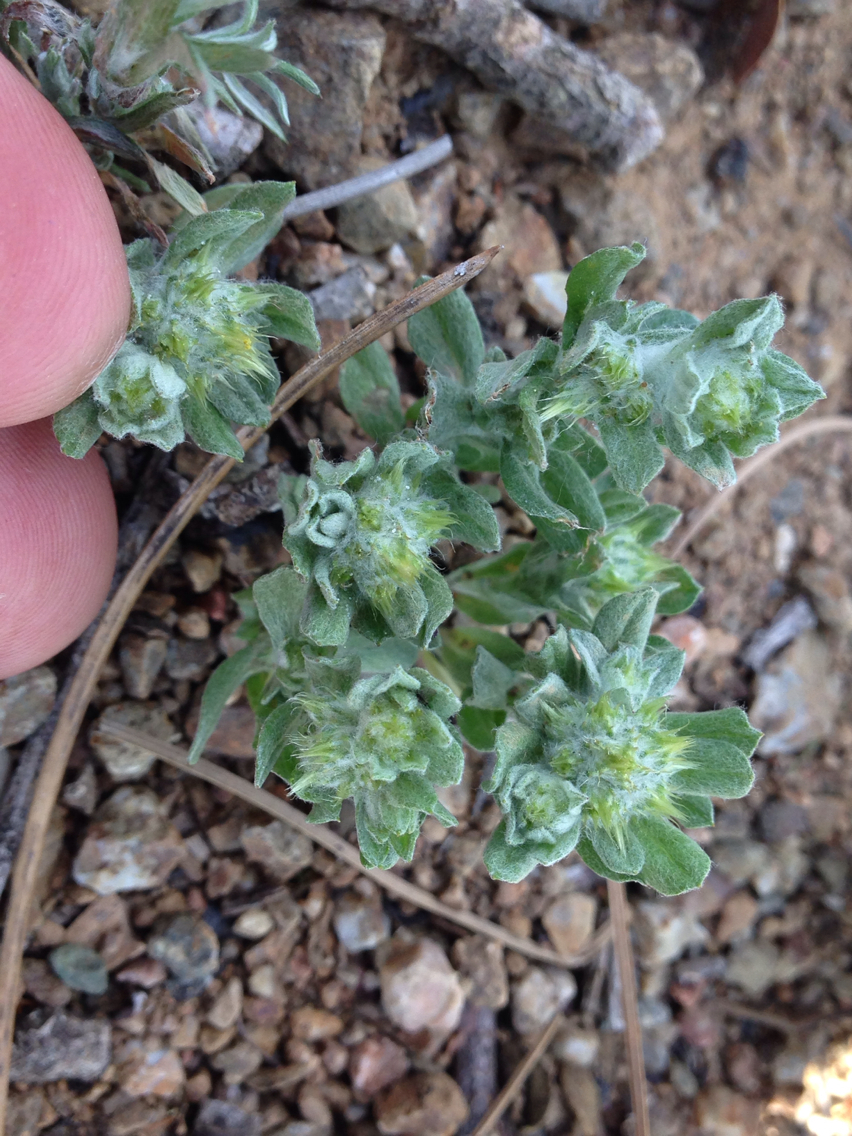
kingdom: Plantae
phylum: Tracheophyta
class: Magnoliopsida
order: Asterales
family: Asteraceae
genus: Filago
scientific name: Filago pyramidata
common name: Broad-leaved cudweed
